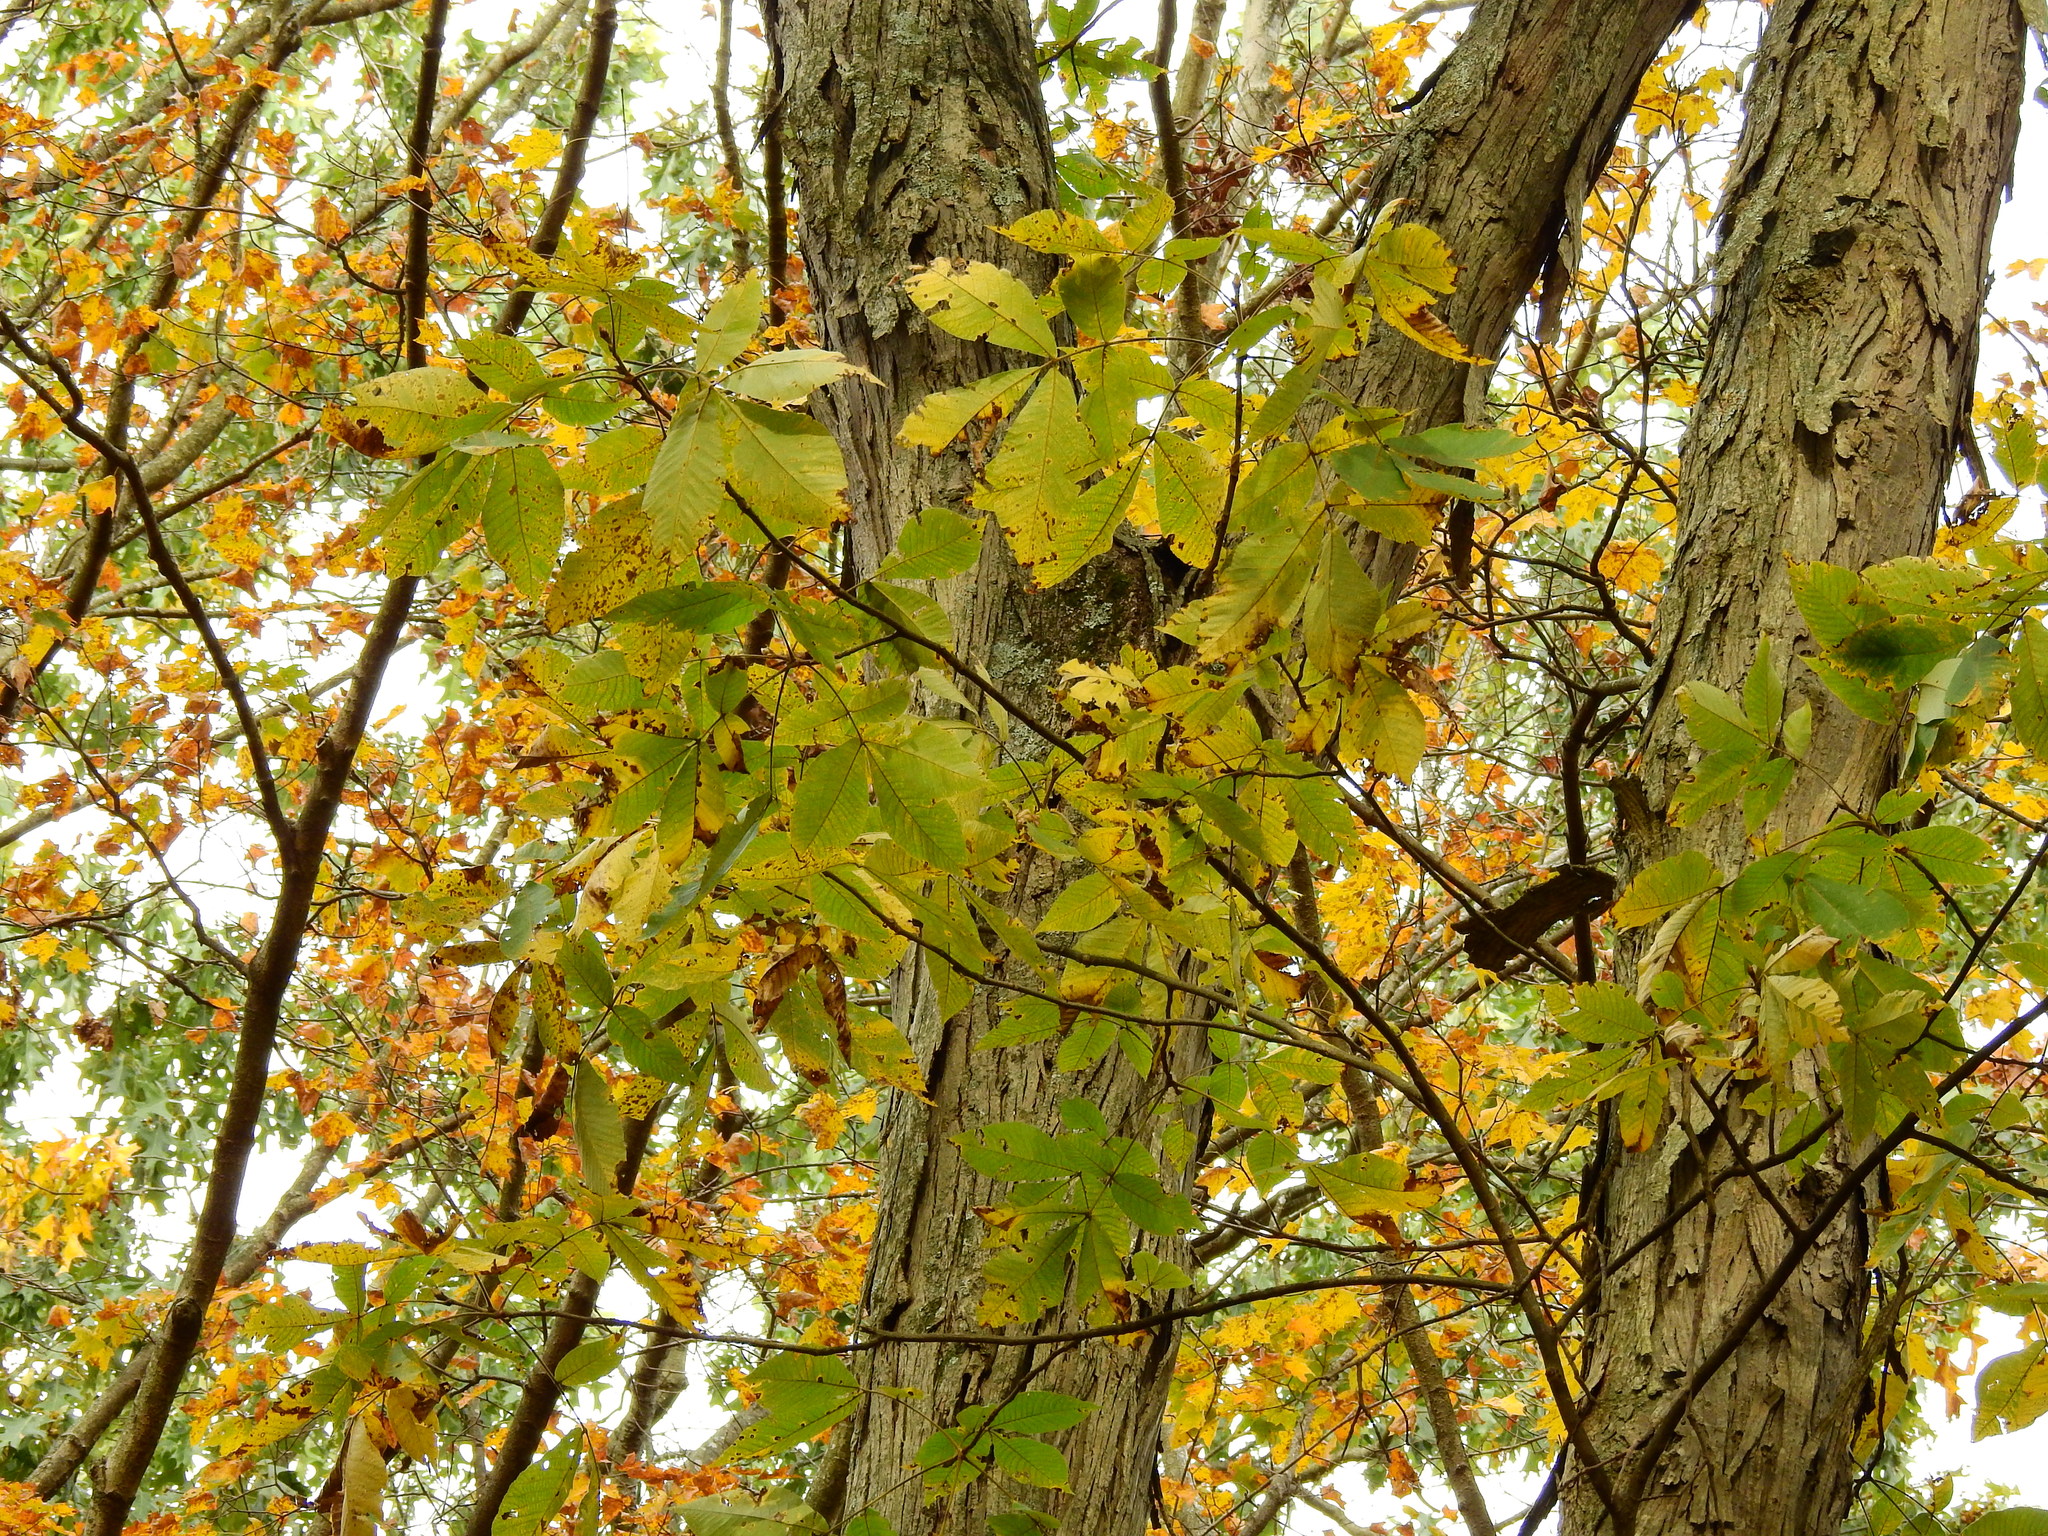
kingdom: Plantae
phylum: Tracheophyta
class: Magnoliopsida
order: Fagales
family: Juglandaceae
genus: Carya
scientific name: Carya ovata
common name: Shagbark hickory
